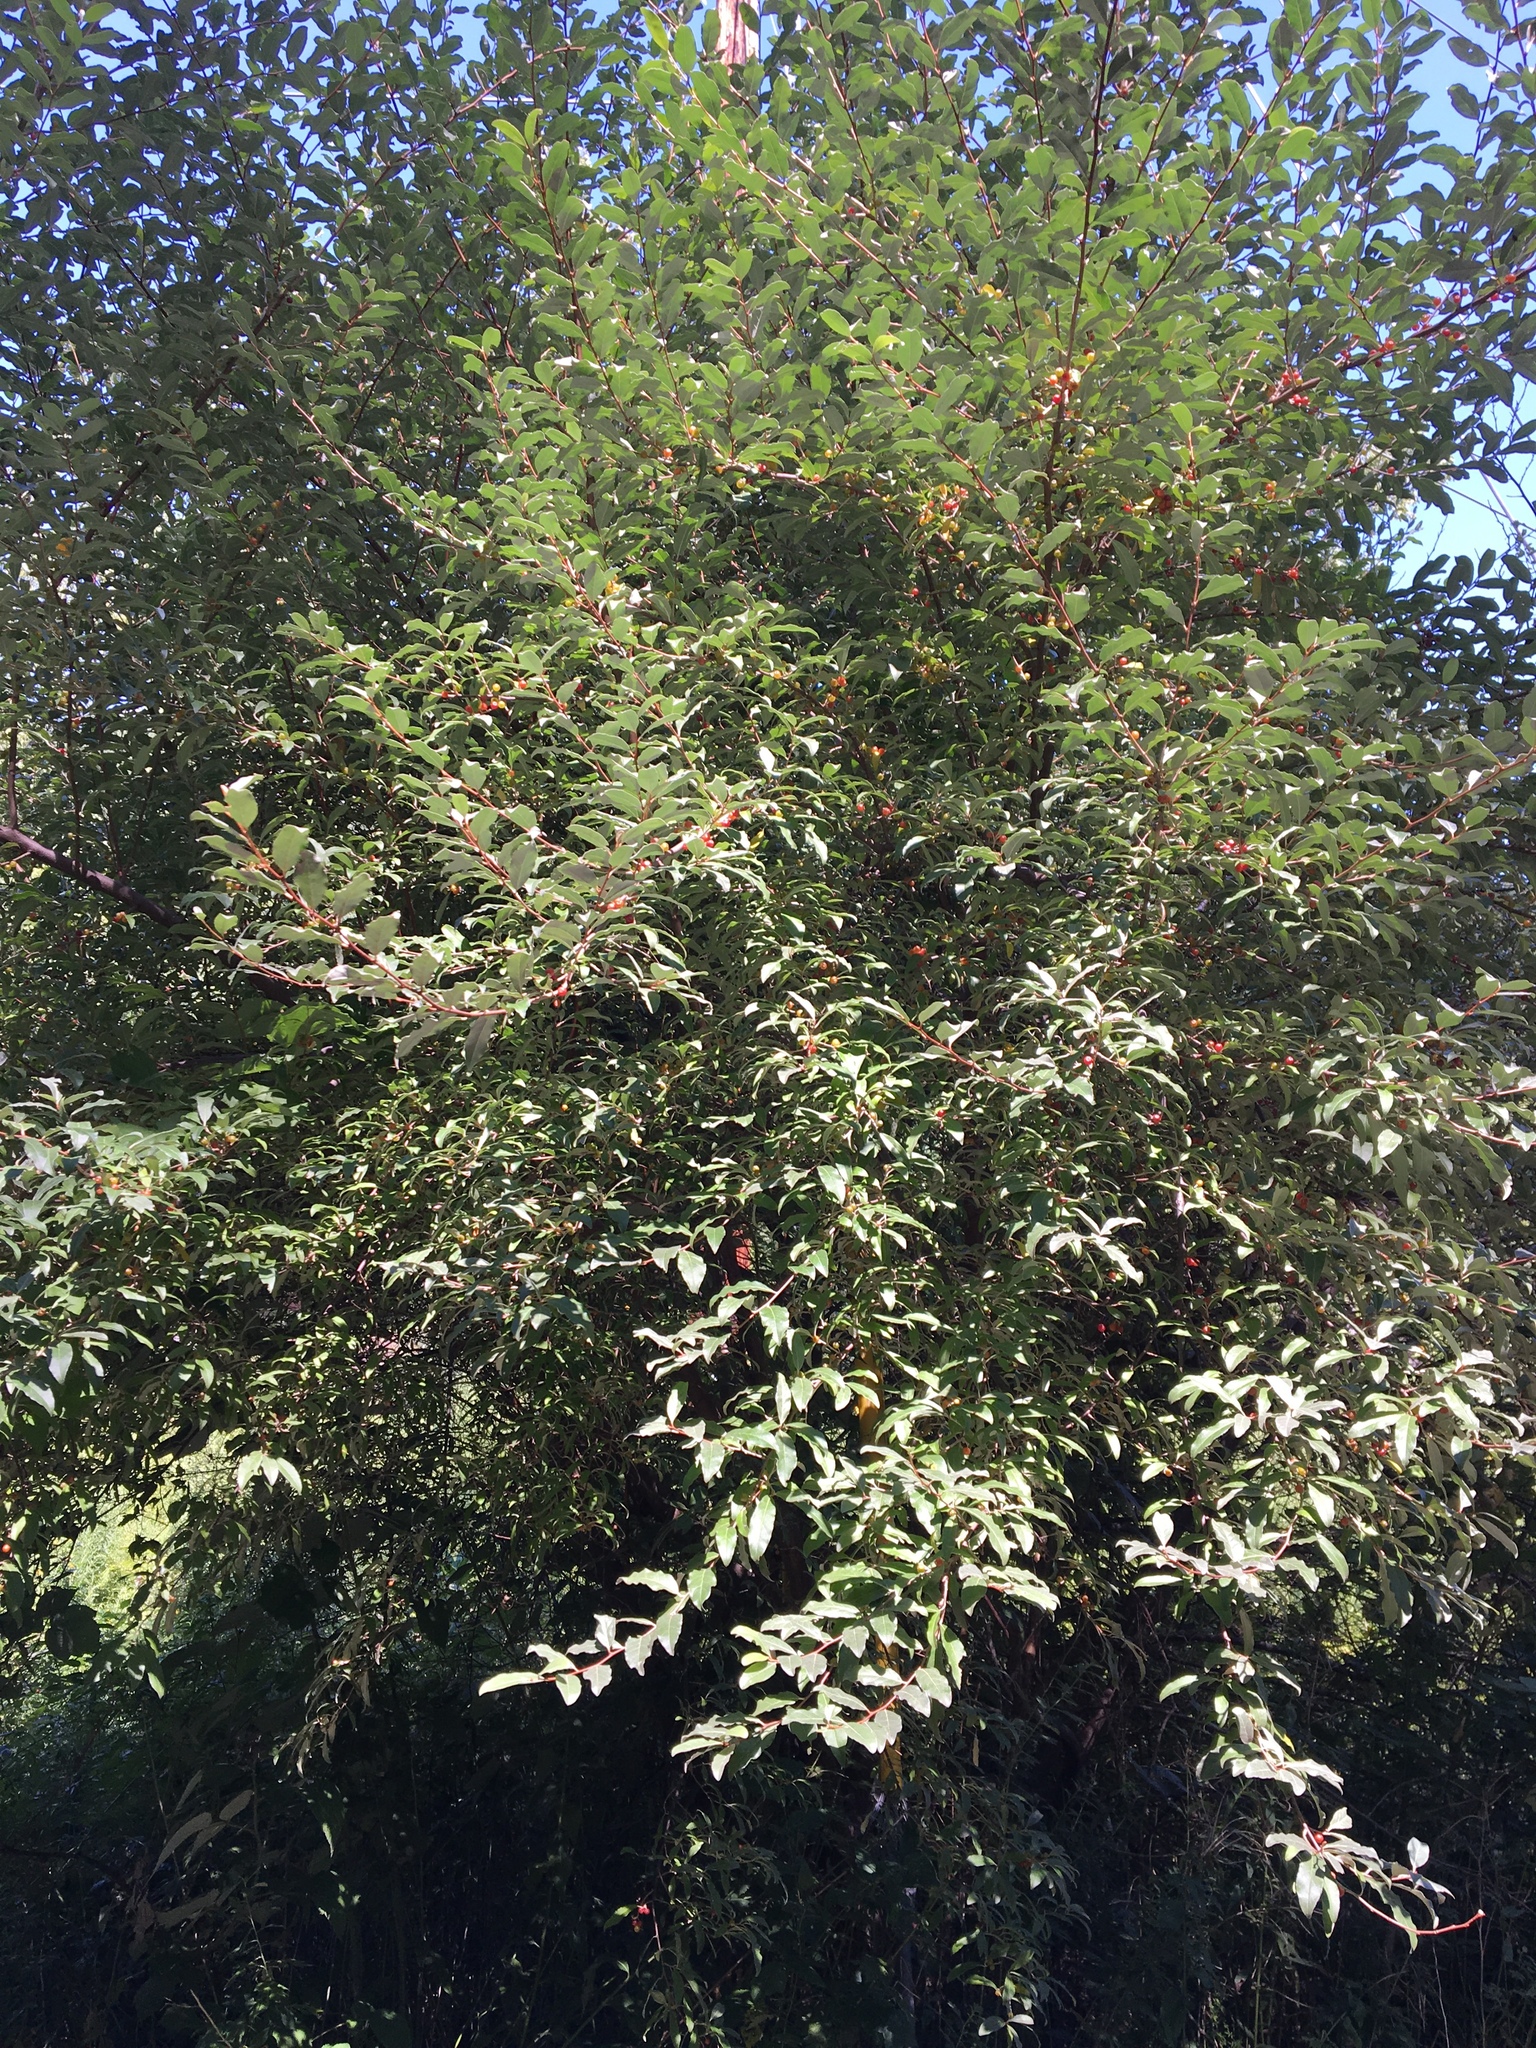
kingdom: Plantae
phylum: Tracheophyta
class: Magnoliopsida
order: Rosales
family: Elaeagnaceae
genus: Elaeagnus
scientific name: Elaeagnus umbellata
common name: Autumn olive
